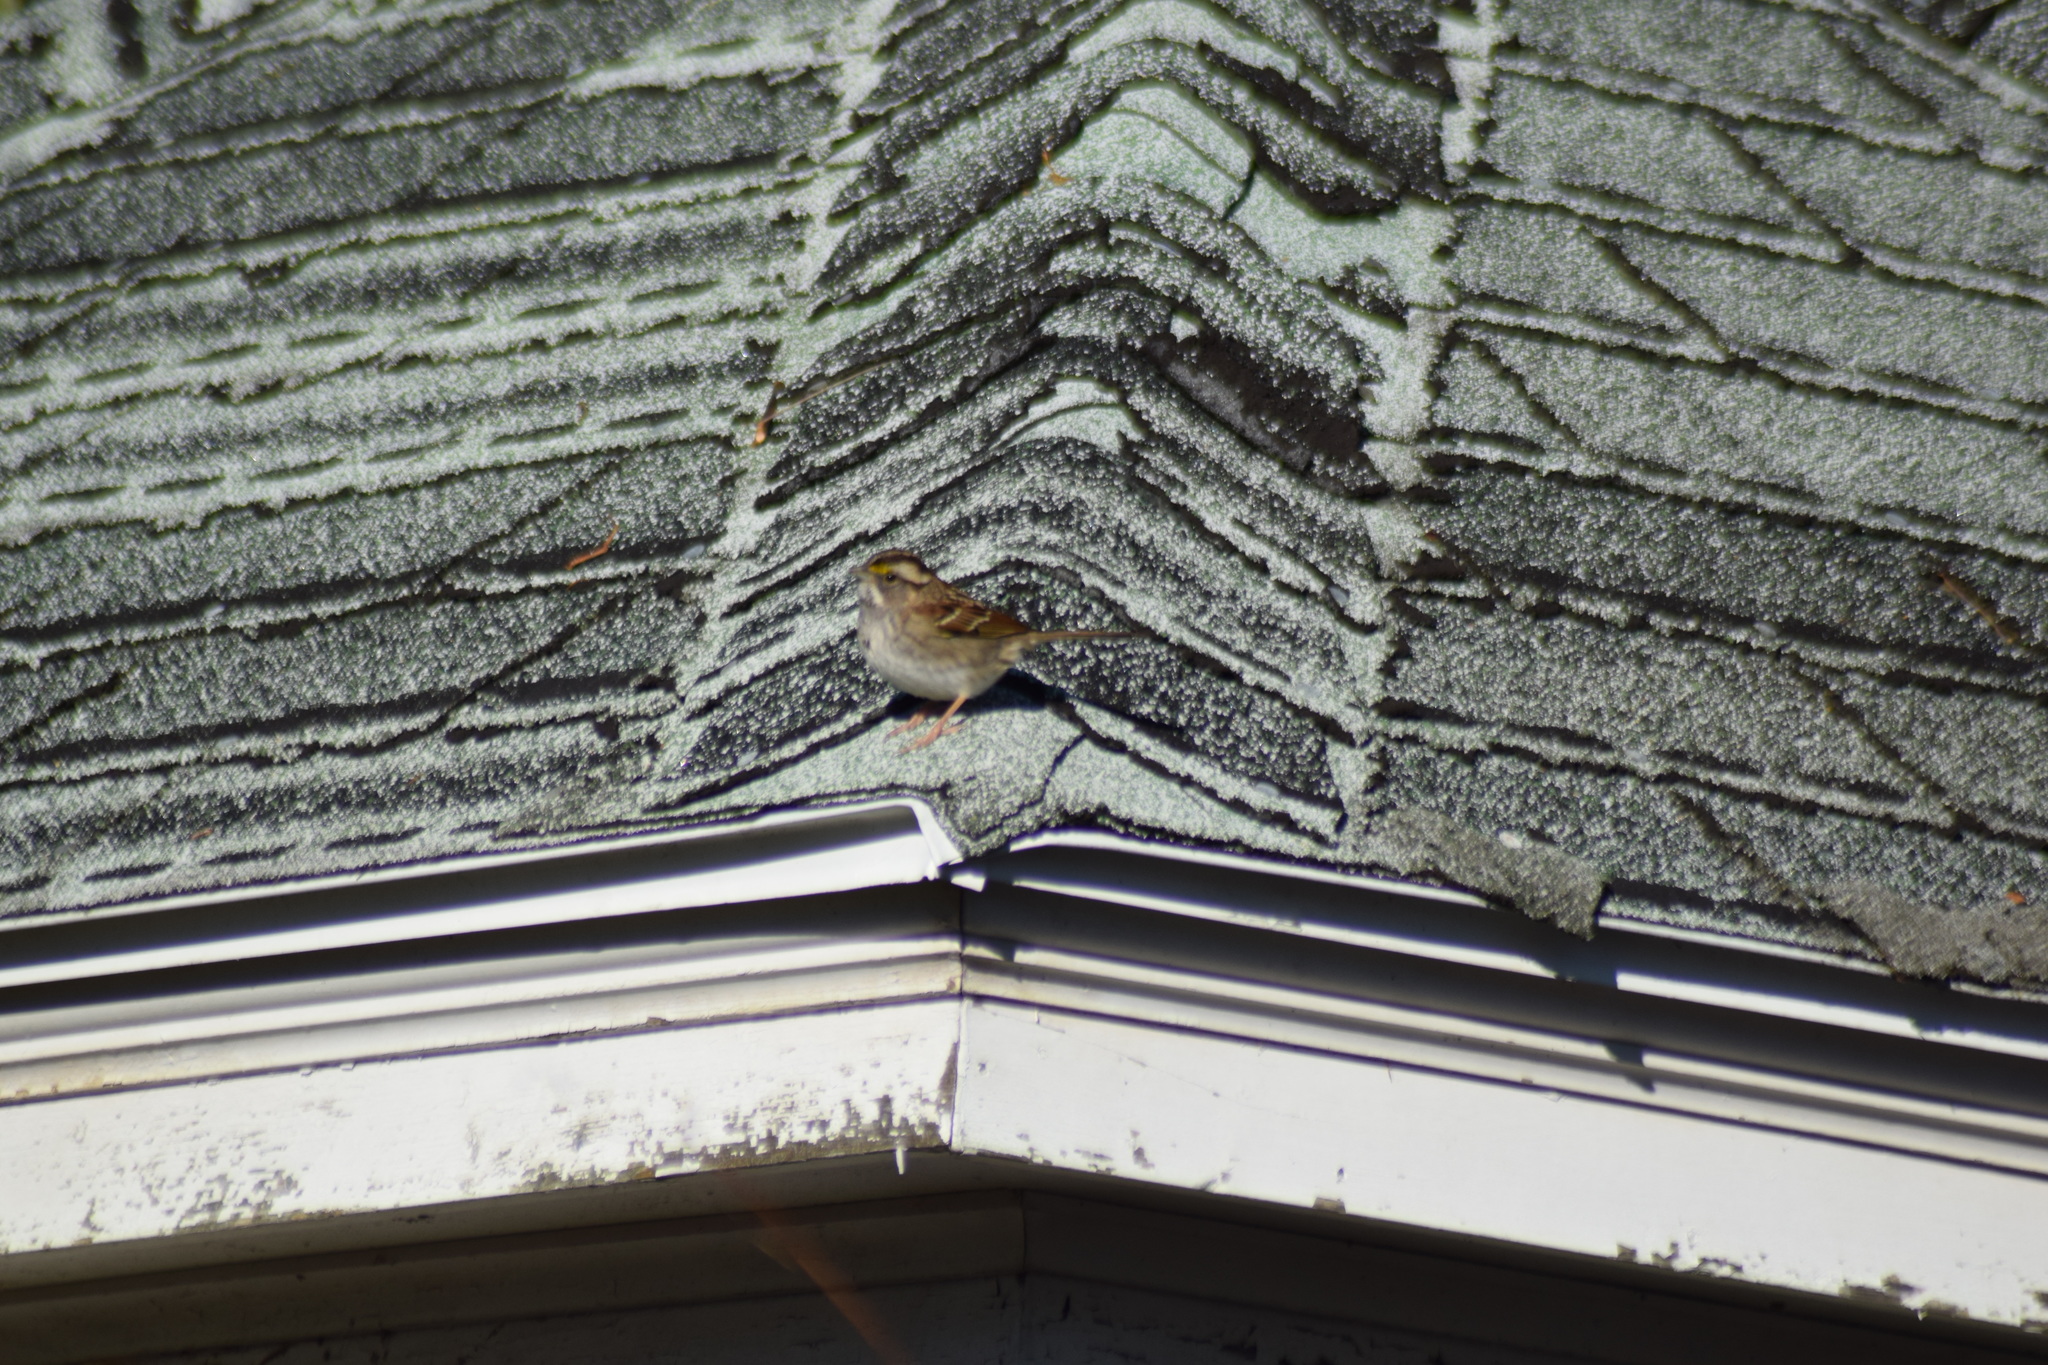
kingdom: Animalia
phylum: Chordata
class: Aves
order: Passeriformes
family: Passerellidae
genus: Zonotrichia
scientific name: Zonotrichia albicollis
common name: White-throated sparrow
